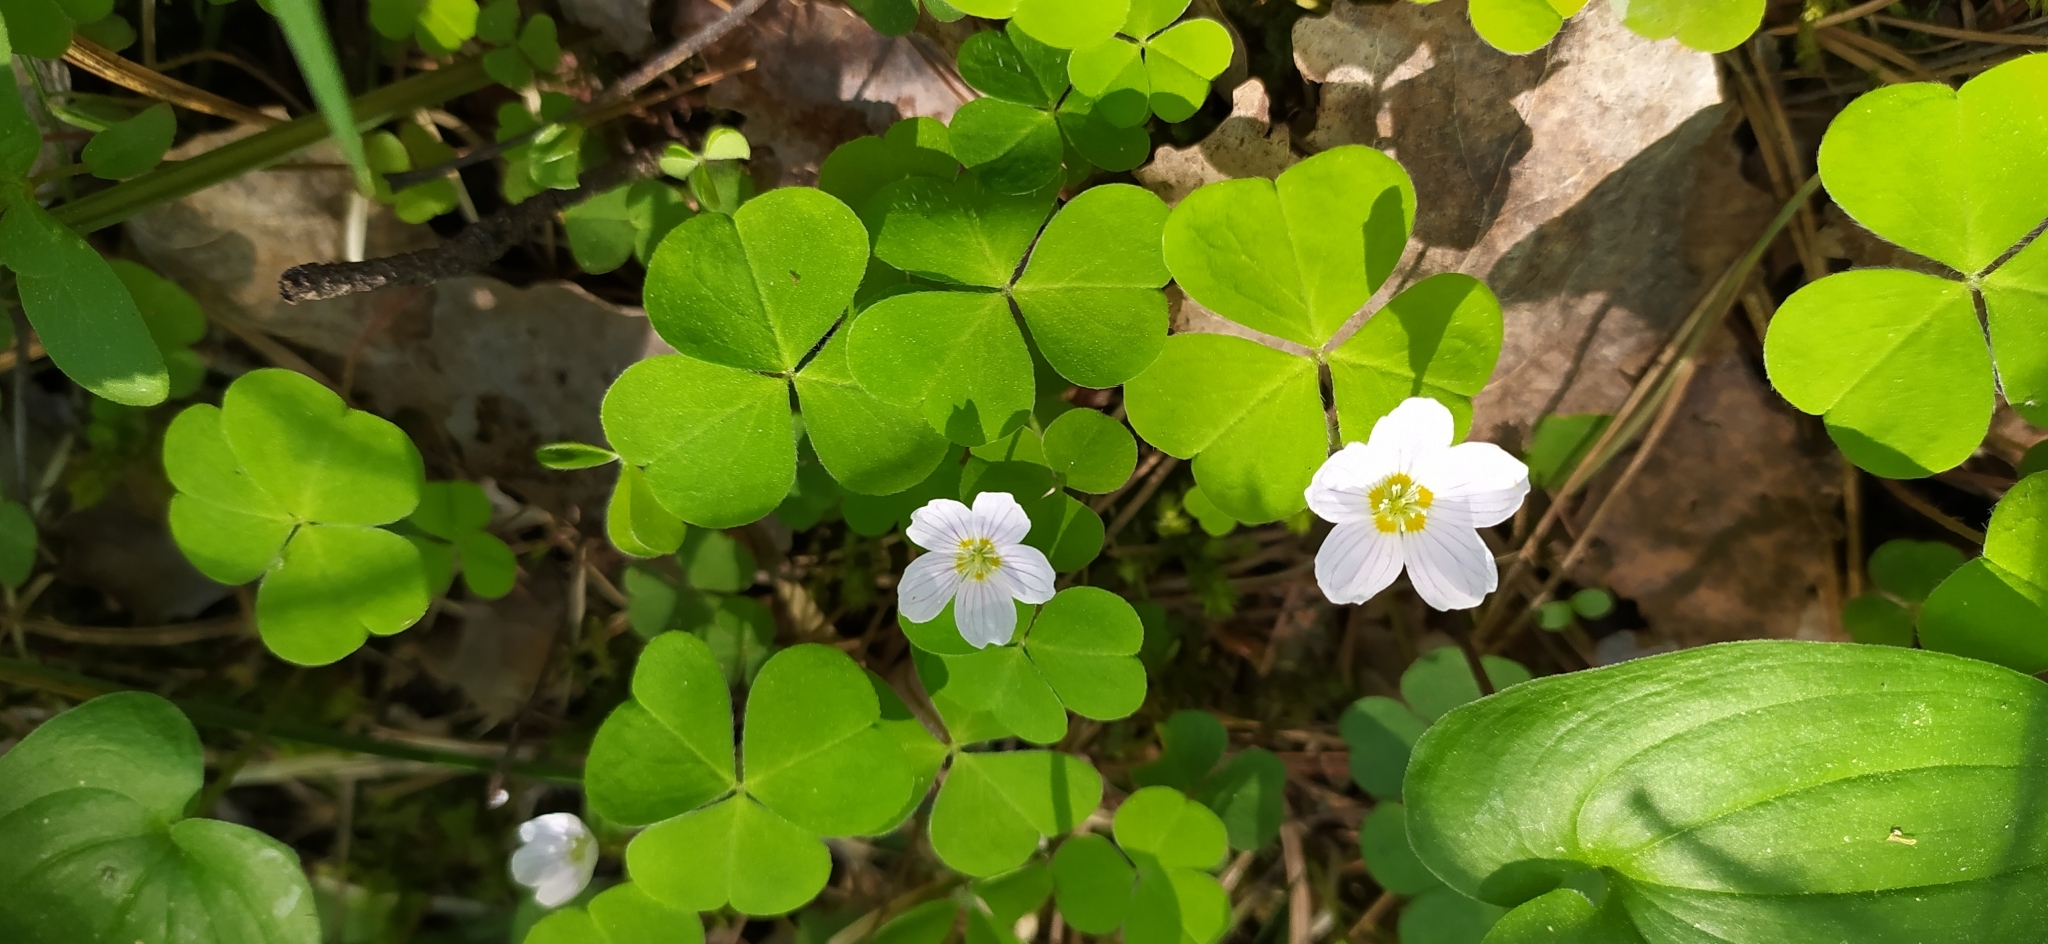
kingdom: Plantae
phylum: Tracheophyta
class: Magnoliopsida
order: Oxalidales
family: Oxalidaceae
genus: Oxalis
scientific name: Oxalis acetosella
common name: Wood-sorrel
